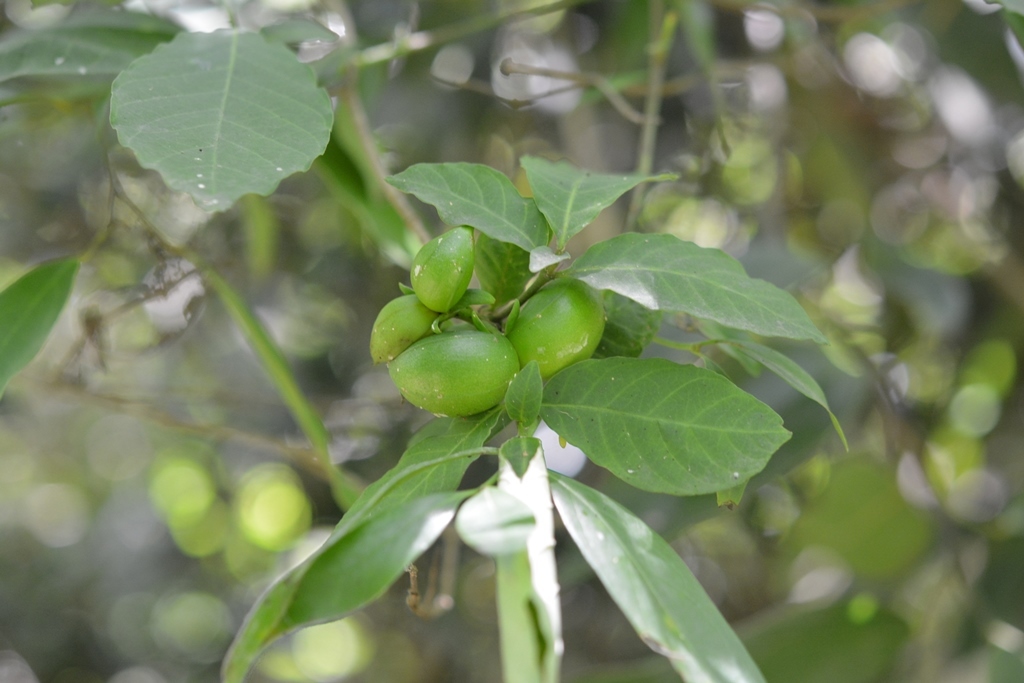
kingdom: Plantae
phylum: Tracheophyta
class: Magnoliopsida
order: Gentianales
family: Apocynaceae
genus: Tabernaemontana
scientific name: Tabernaemontana hannae
